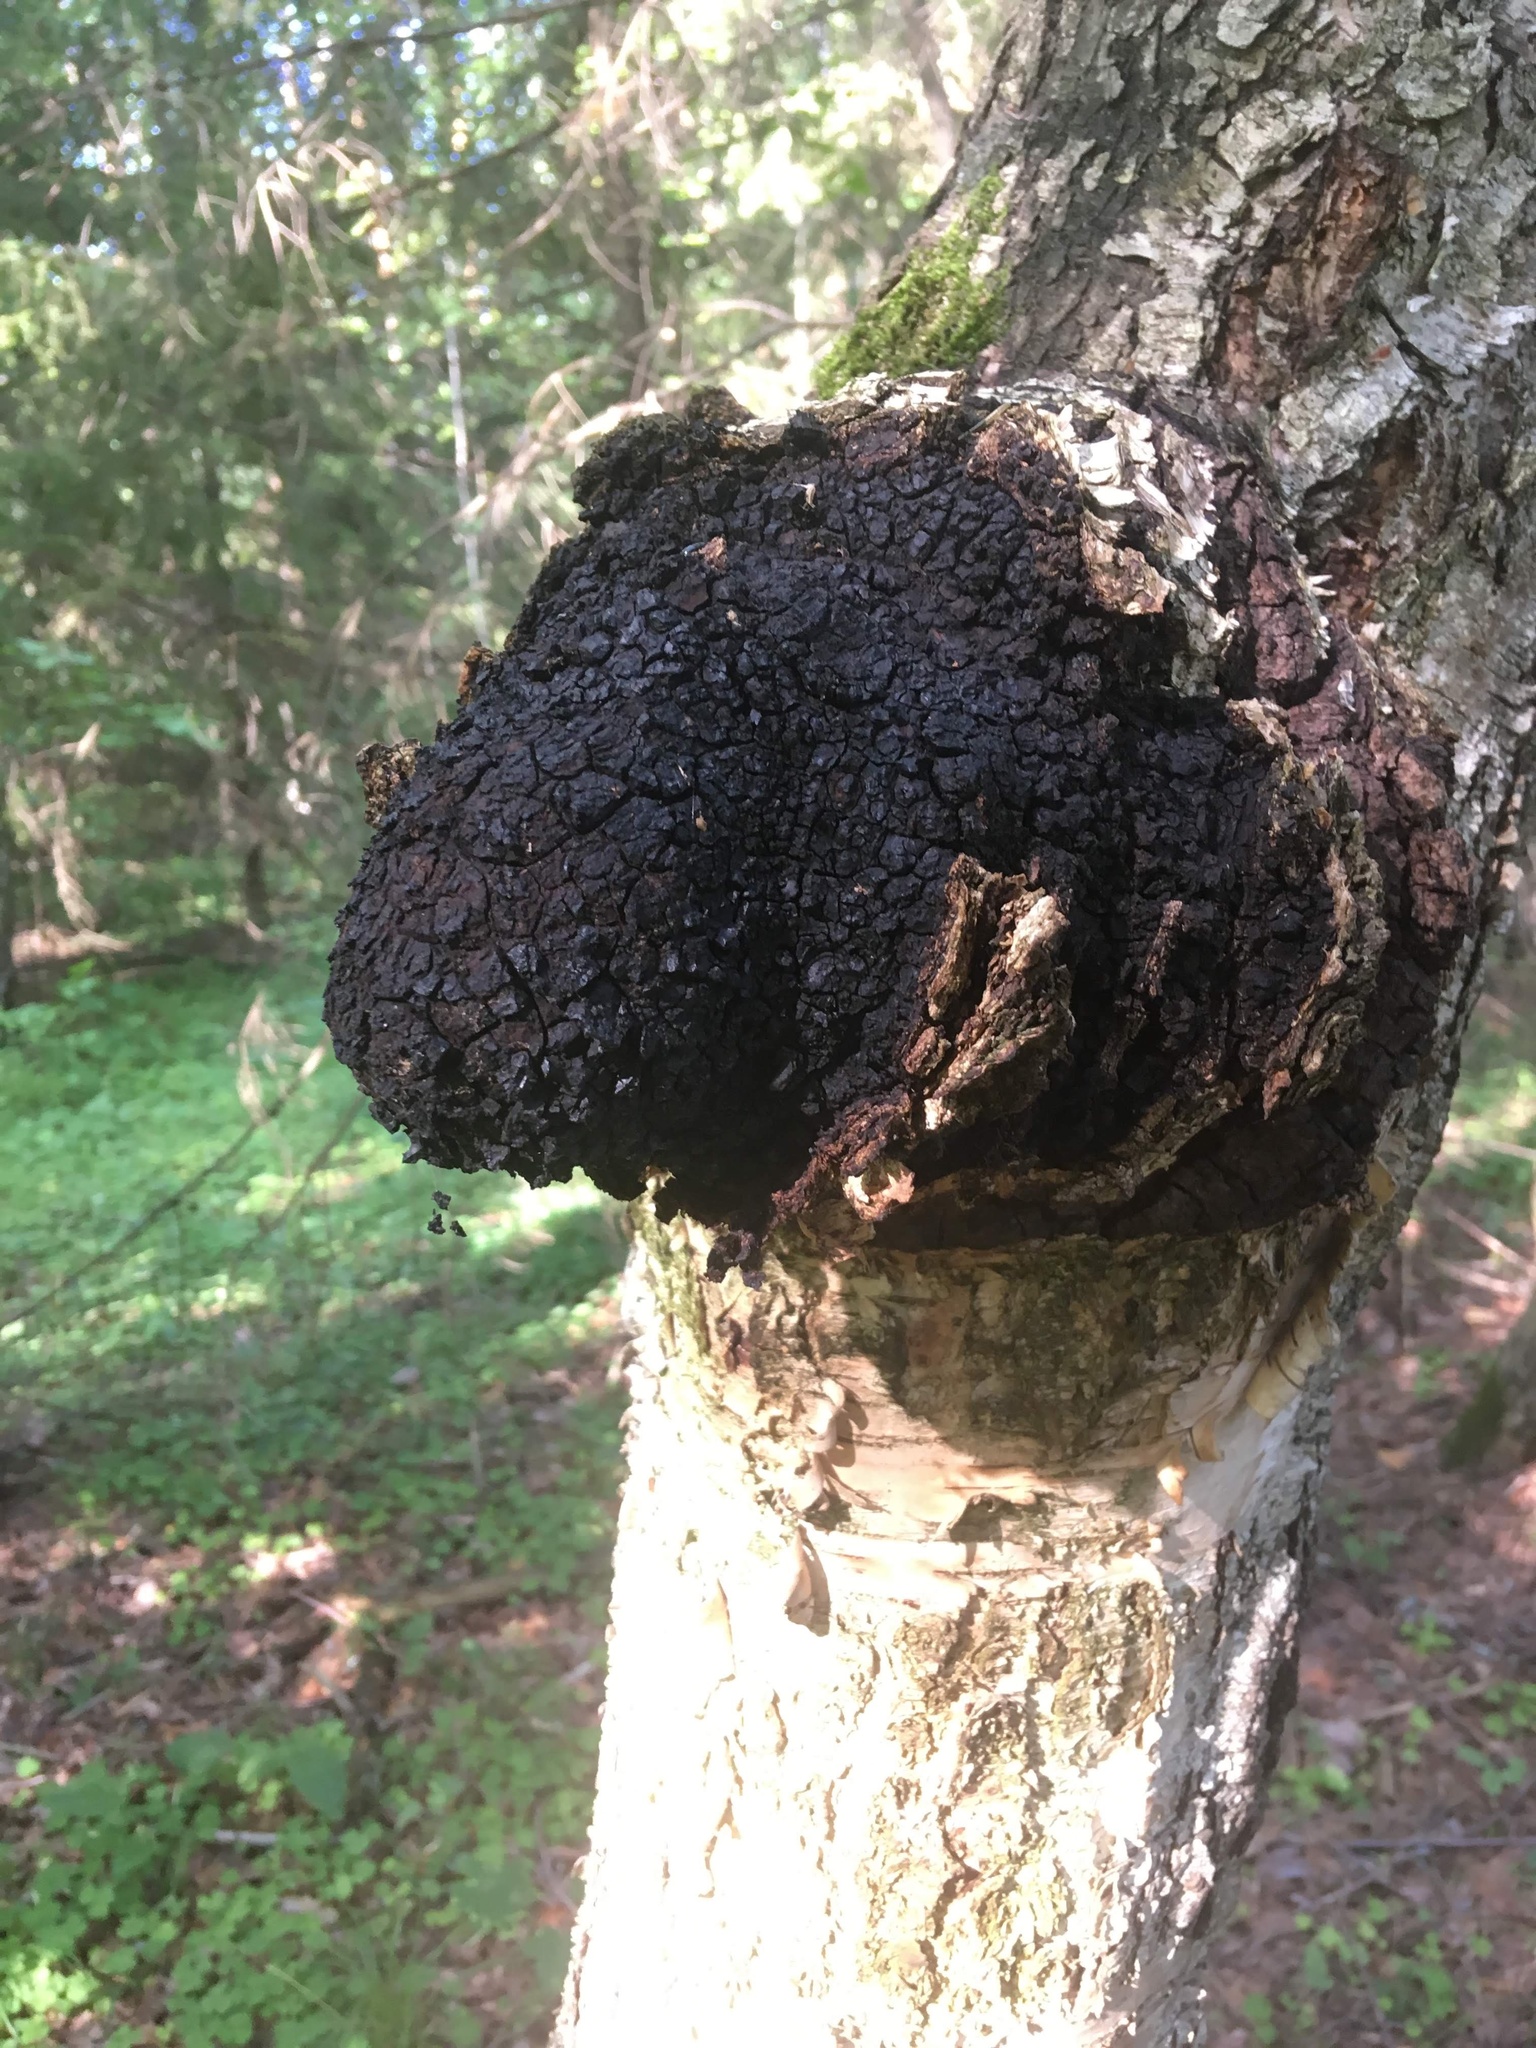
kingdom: Fungi
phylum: Basidiomycota
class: Agaricomycetes
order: Hymenochaetales
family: Hymenochaetaceae
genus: Inonotus
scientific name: Inonotus obliquus
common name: Chaga
